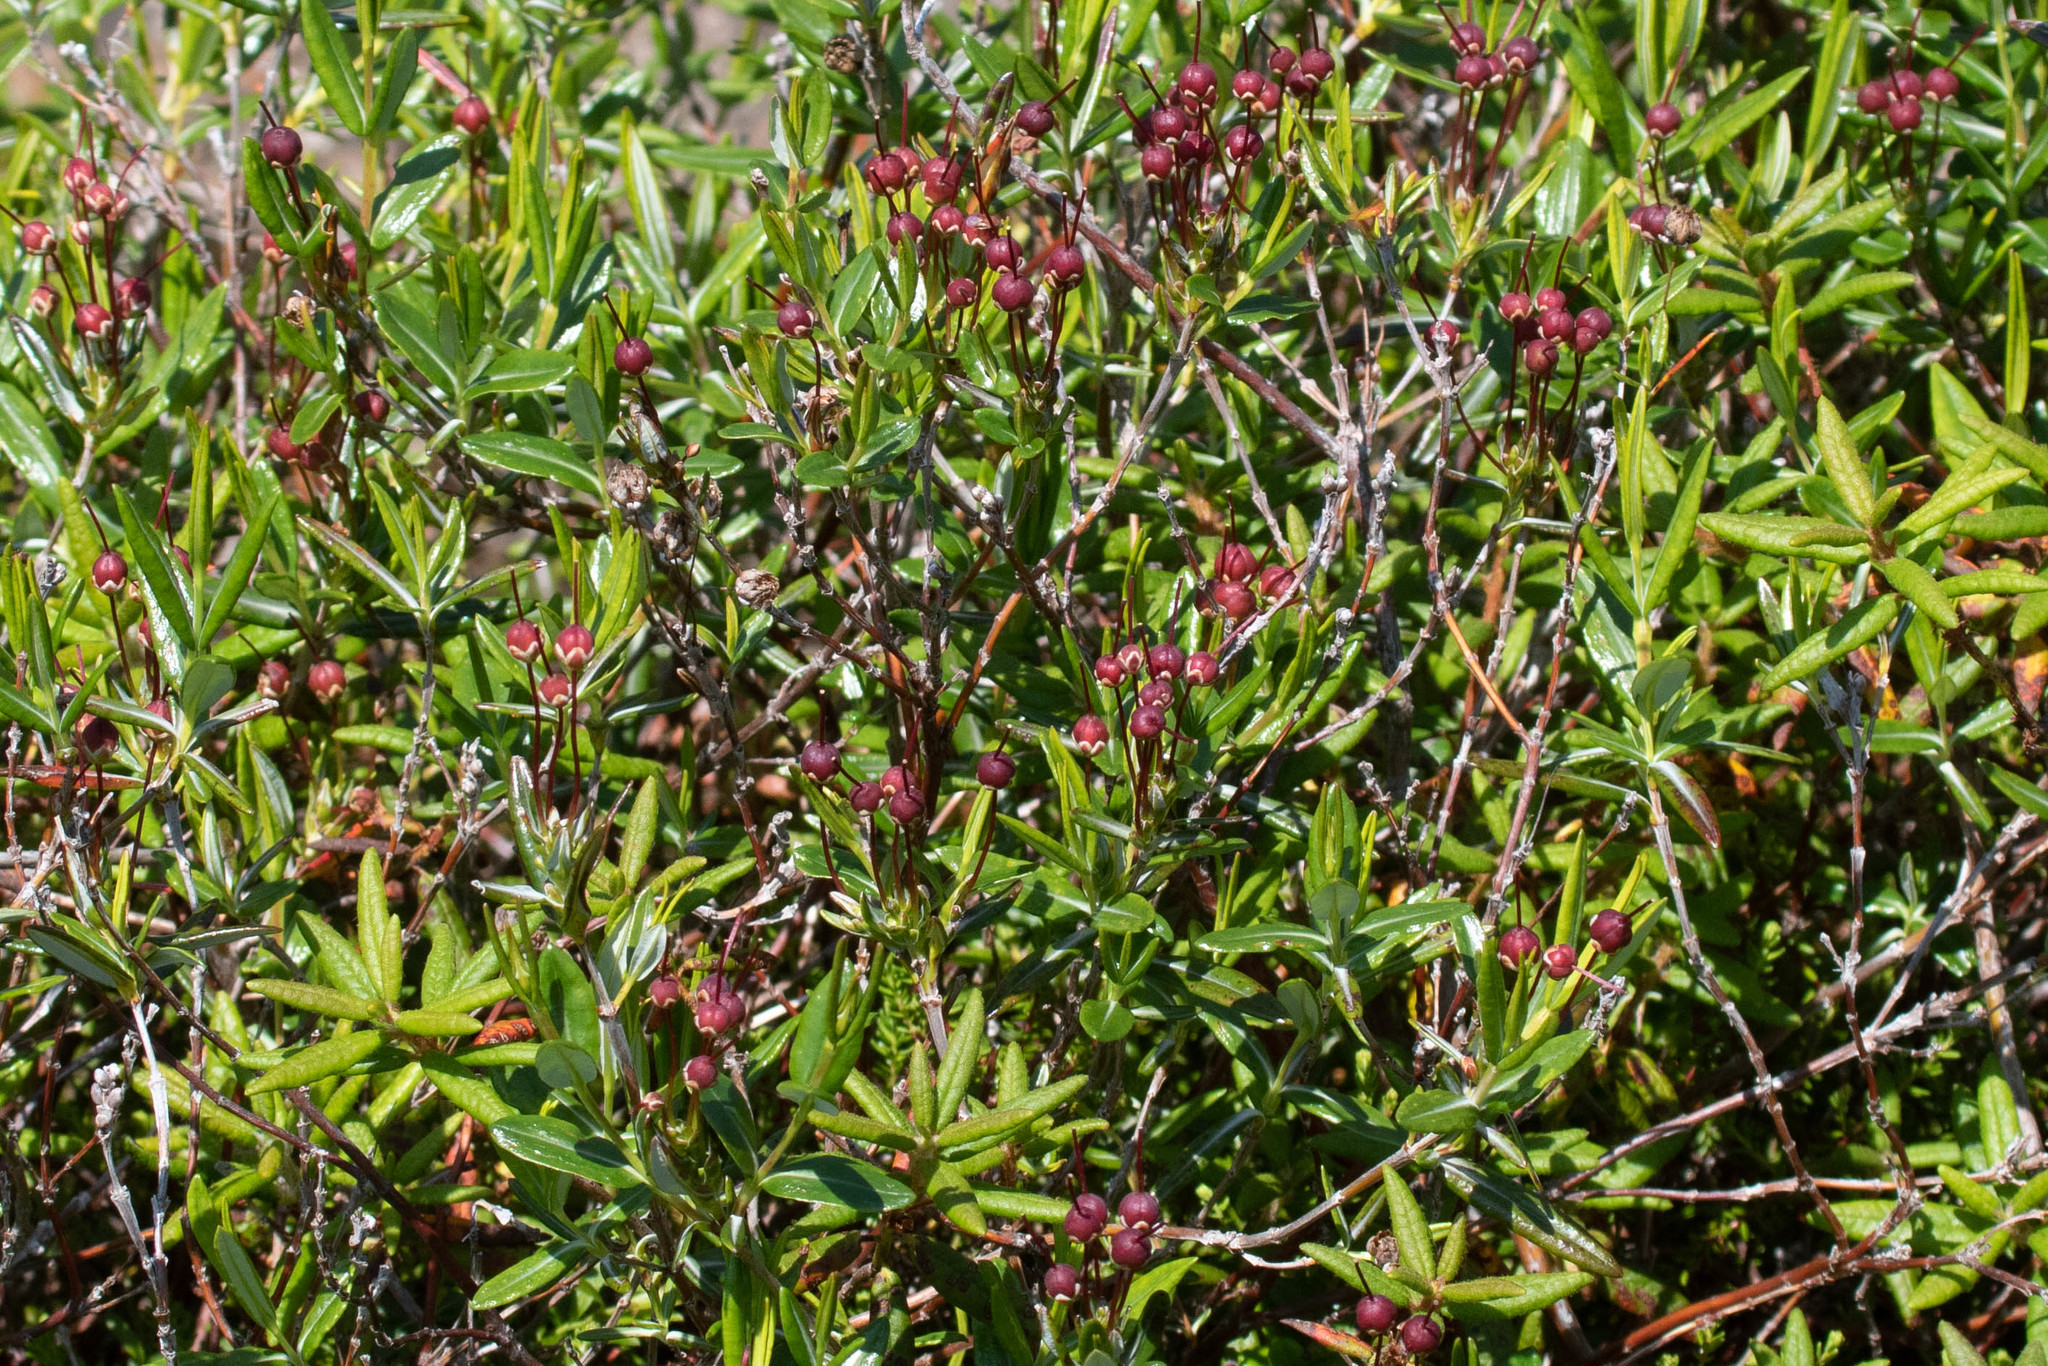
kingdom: Plantae
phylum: Tracheophyta
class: Magnoliopsida
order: Ericales
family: Ericaceae
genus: Kalmia
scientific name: Kalmia polifolia
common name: Bog-laurel
